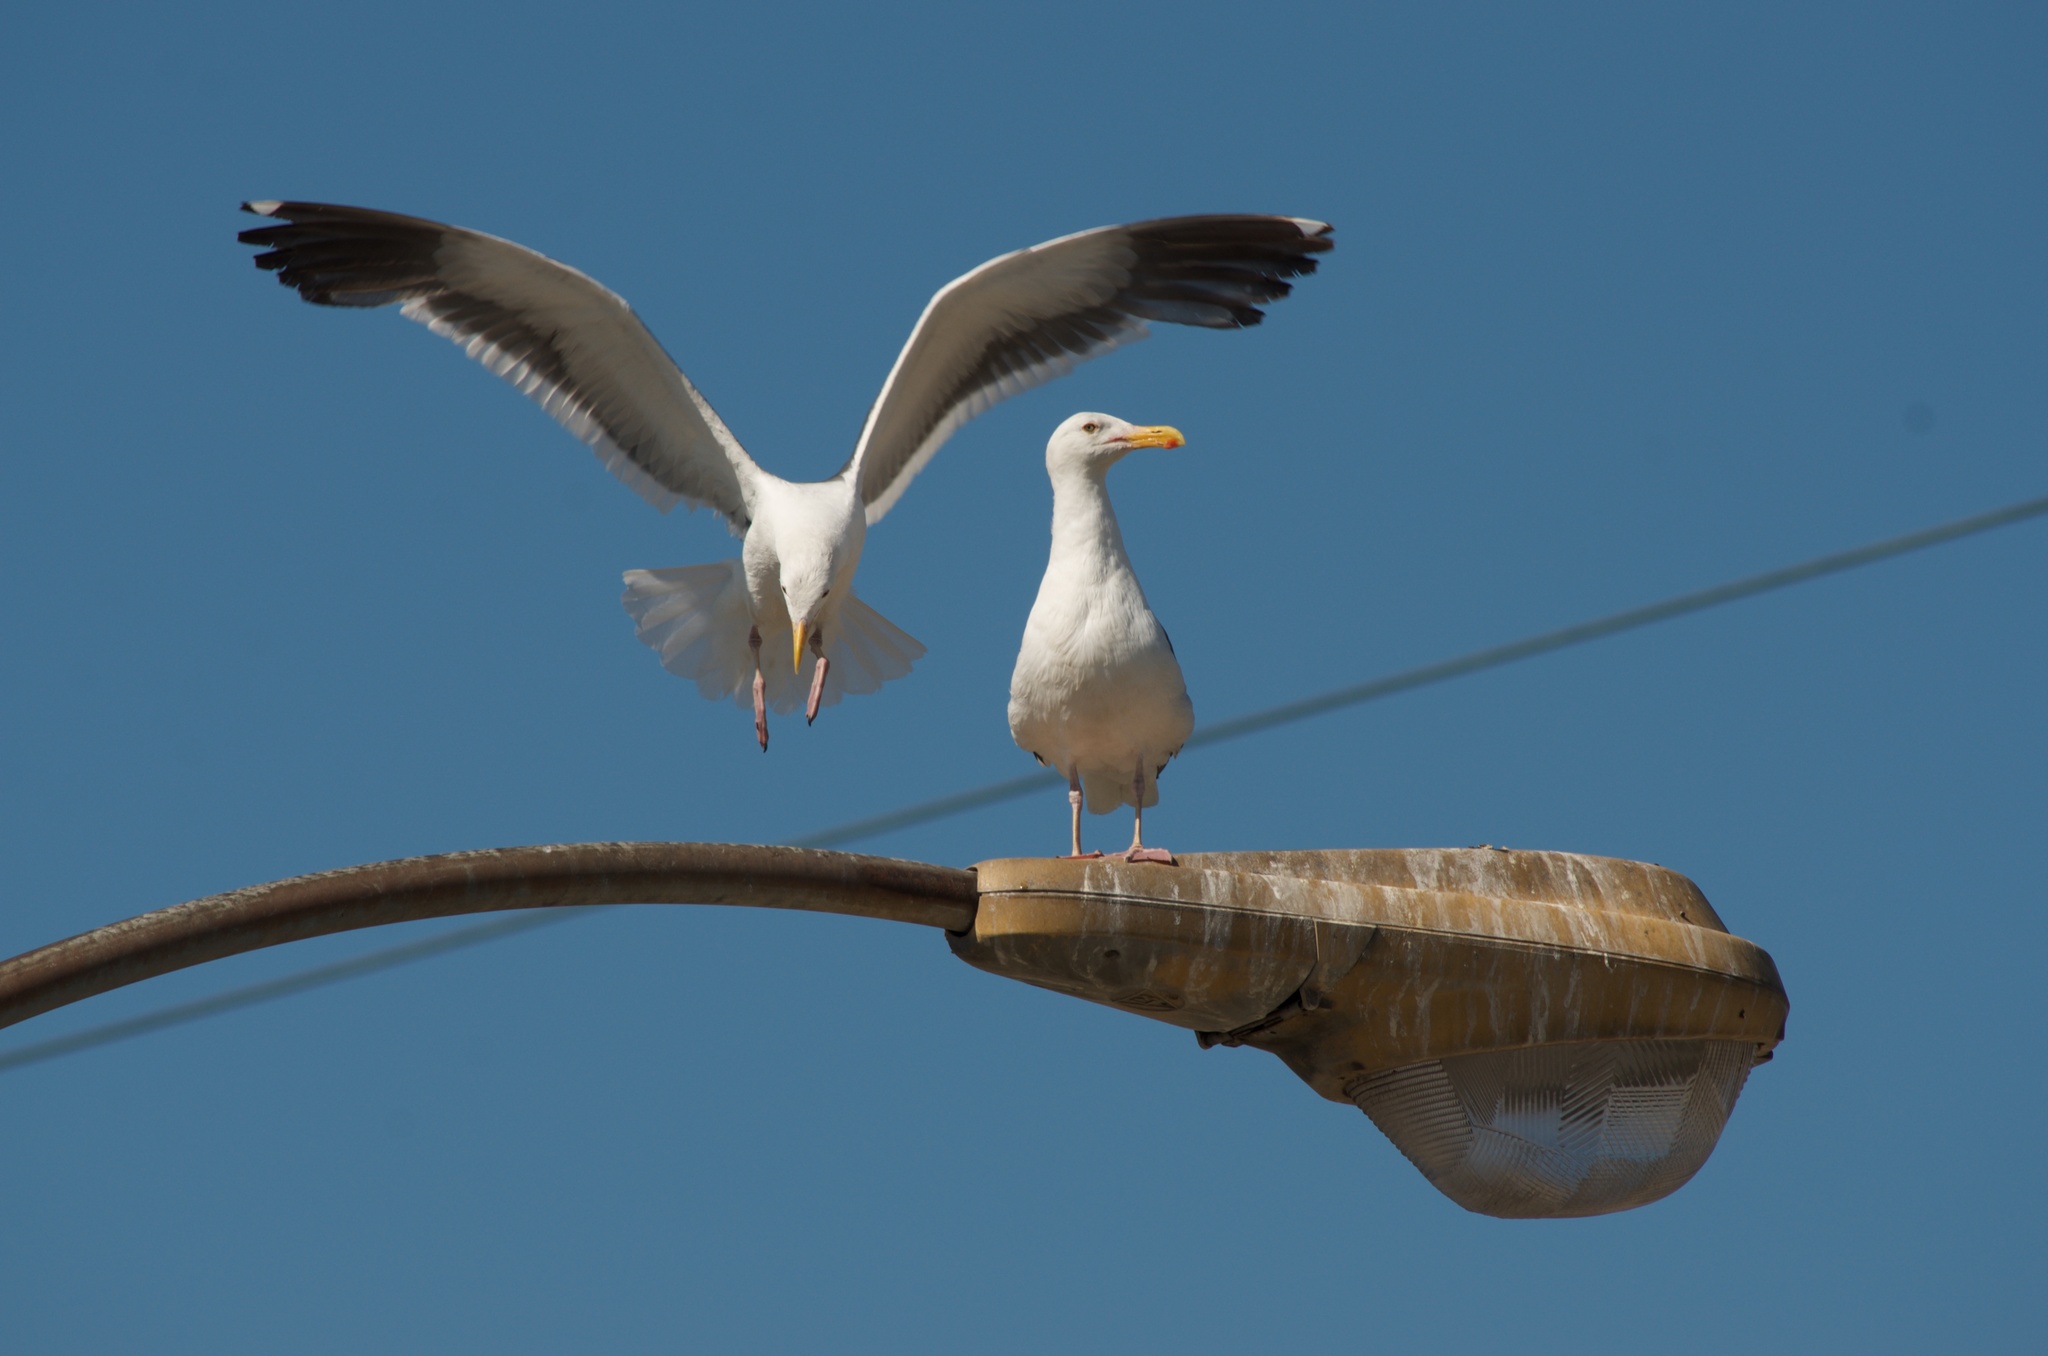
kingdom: Animalia
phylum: Chordata
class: Aves
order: Charadriiformes
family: Laridae
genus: Larus
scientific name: Larus occidentalis
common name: Western gull
